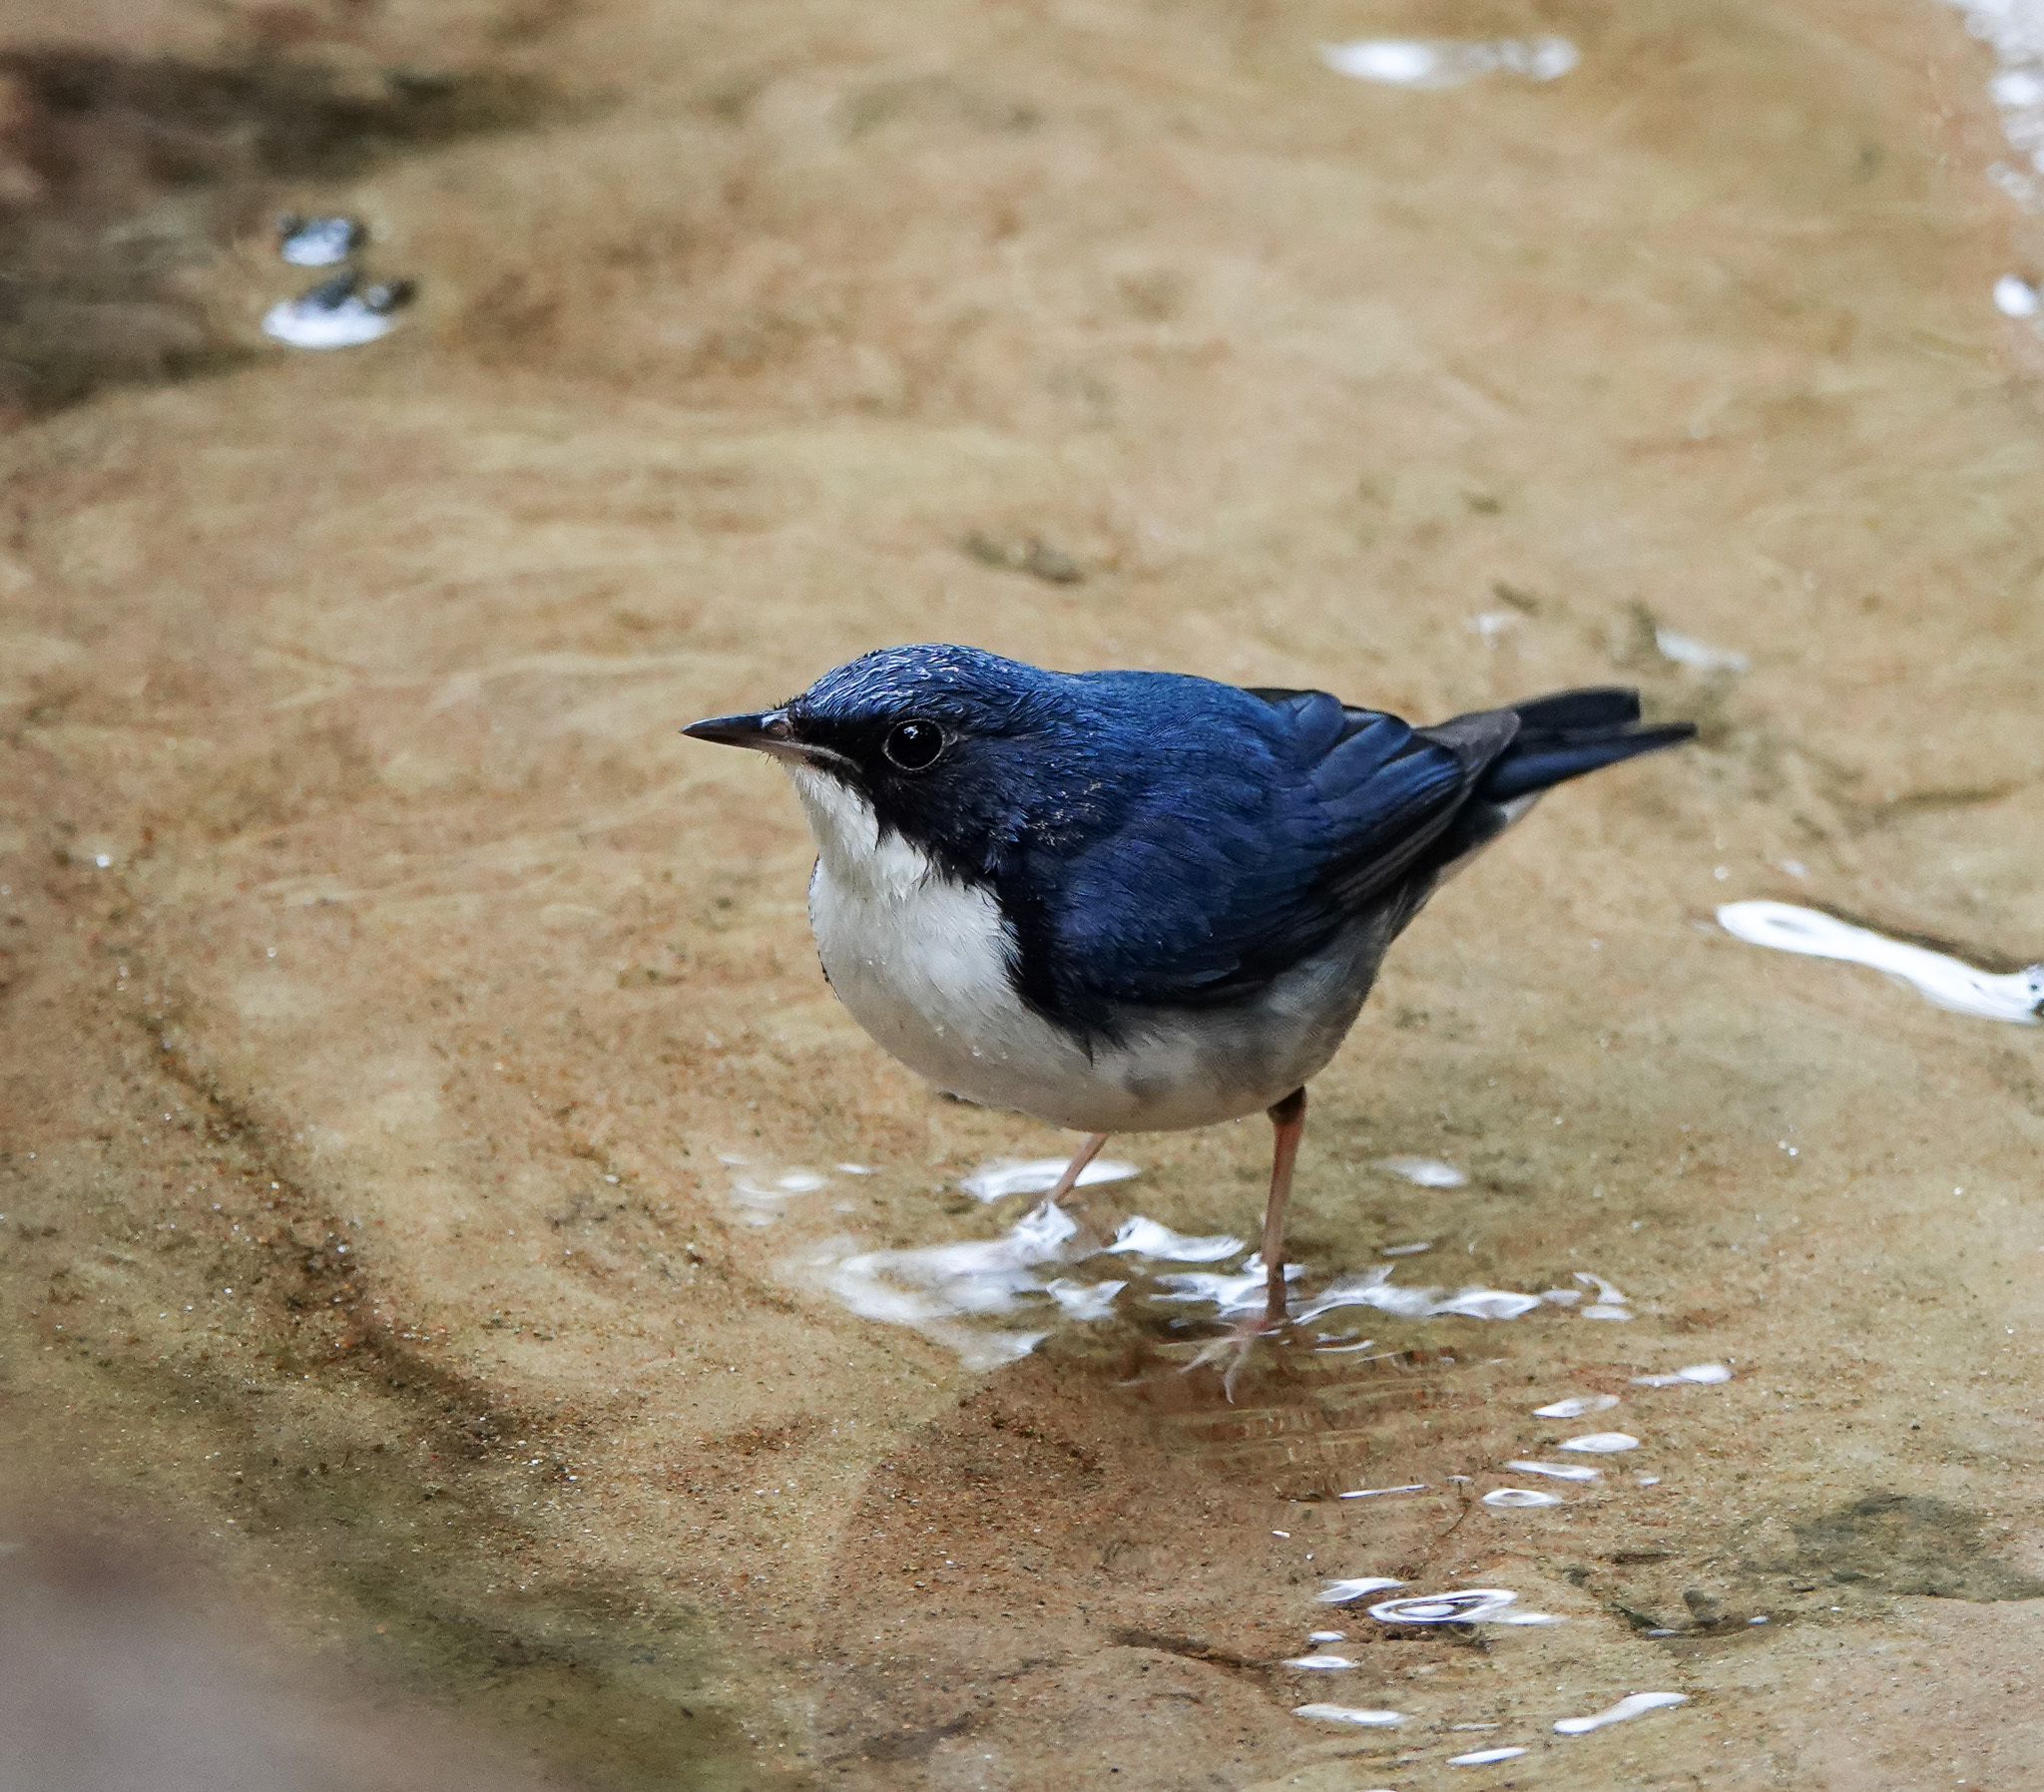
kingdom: Animalia
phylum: Chordata
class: Aves
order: Passeriformes
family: Muscicapidae
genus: Luscinia
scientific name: Luscinia cyane
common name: Siberian blue robin
